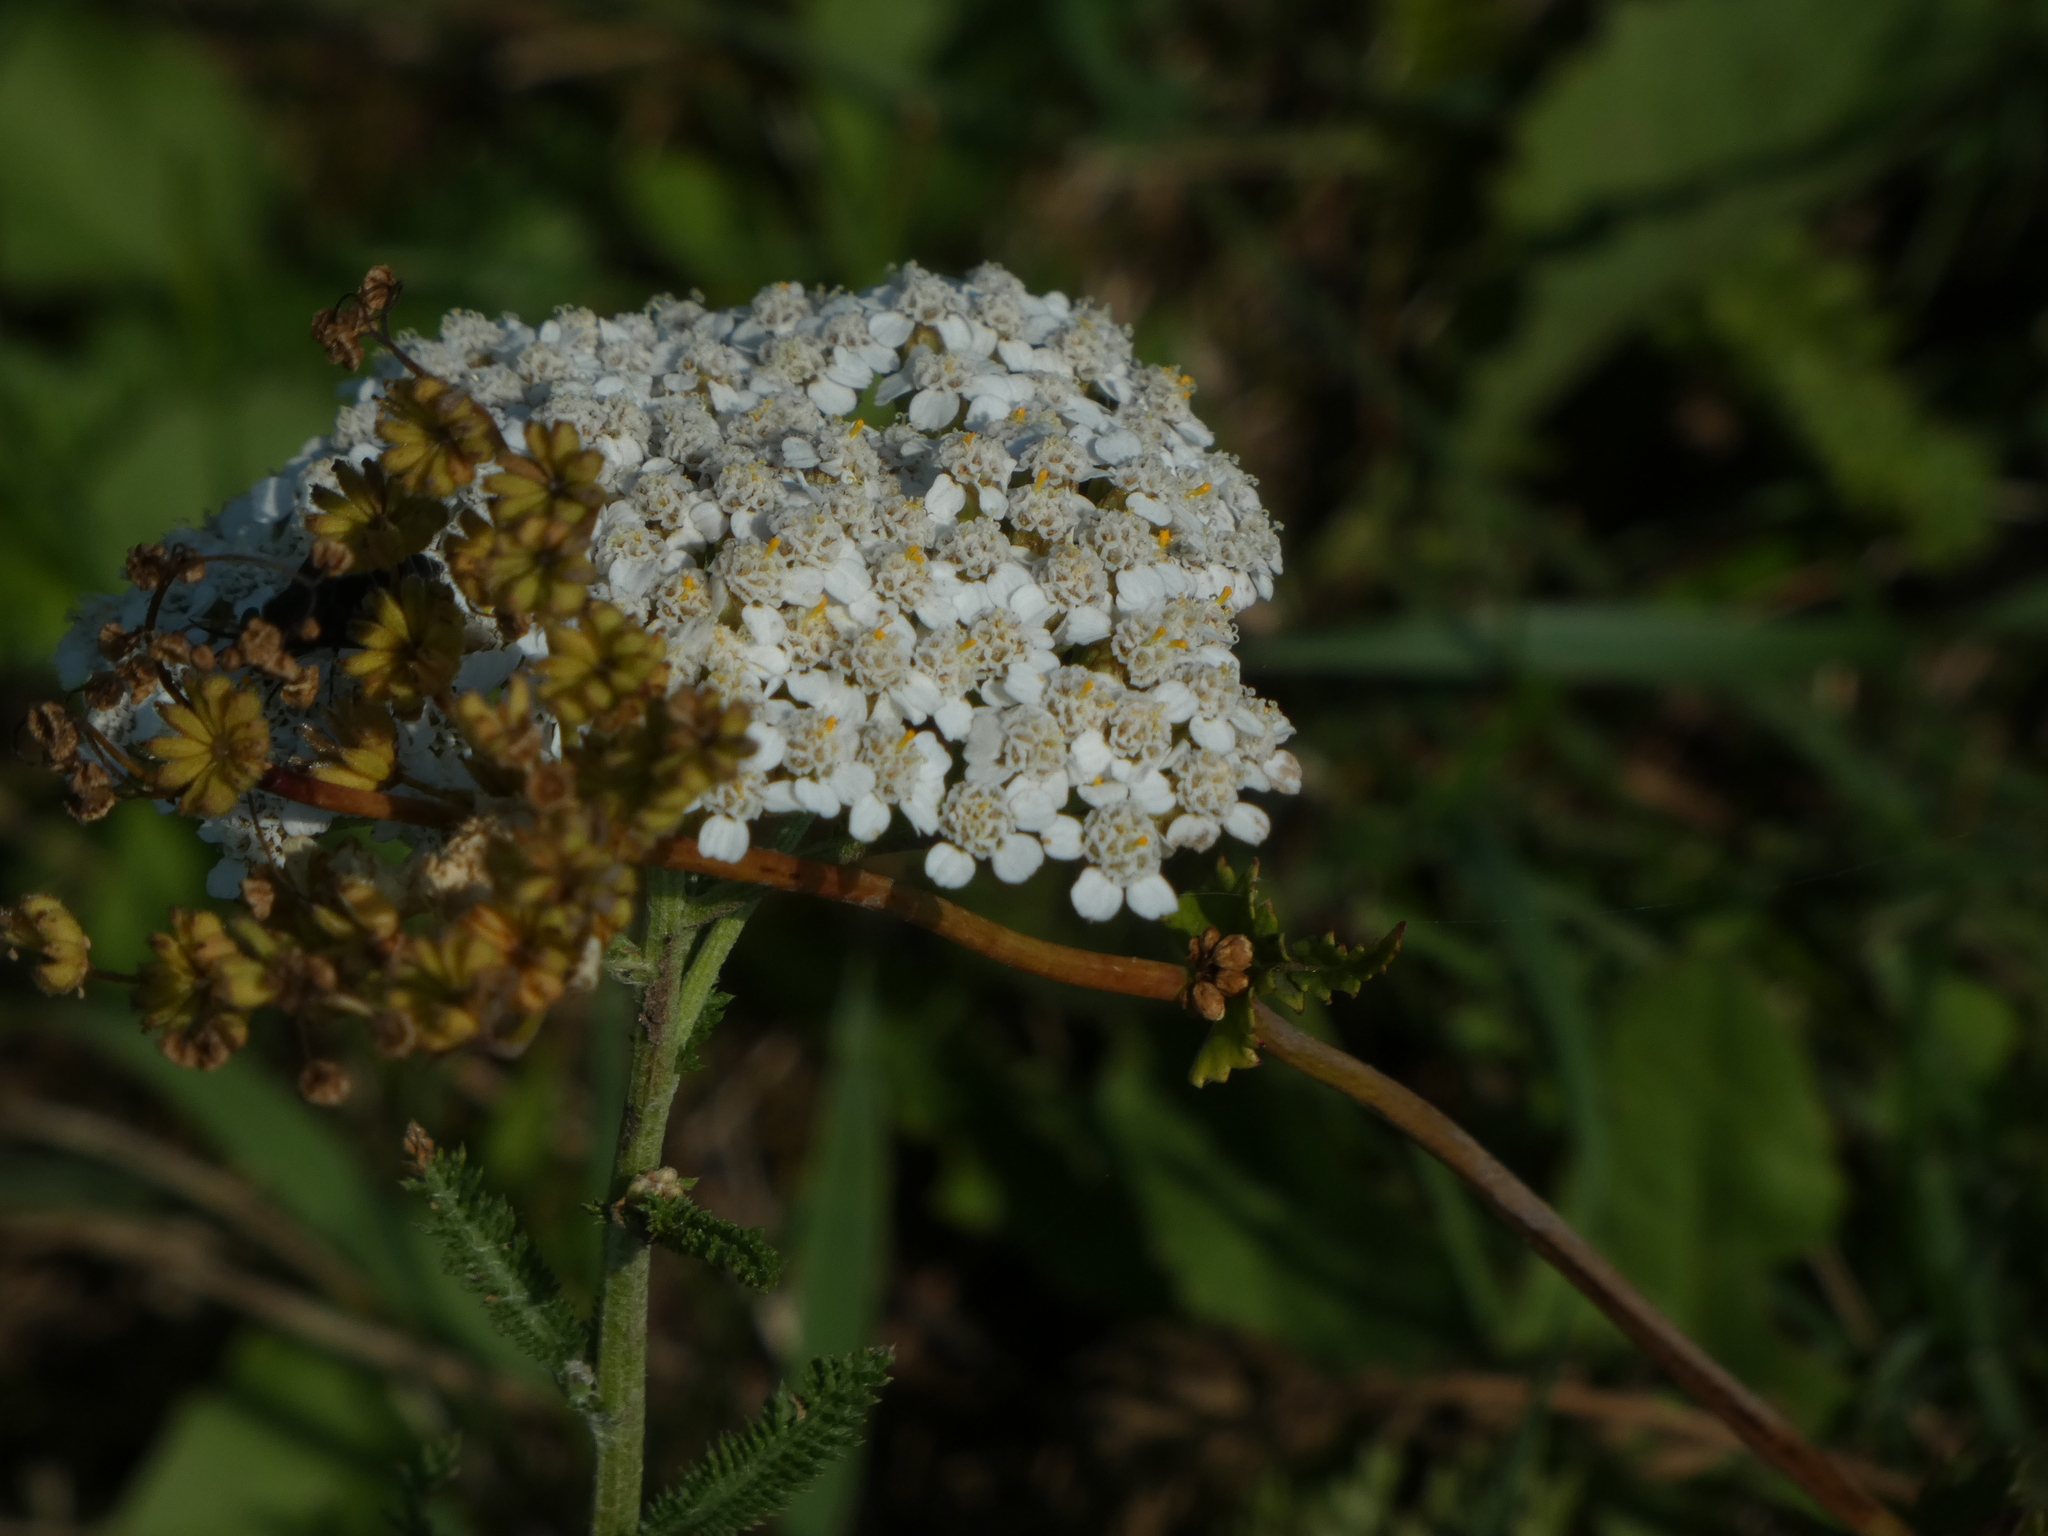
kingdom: Plantae
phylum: Tracheophyta
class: Magnoliopsida
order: Asterales
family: Asteraceae
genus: Achillea
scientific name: Achillea millefolium
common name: Yarrow
